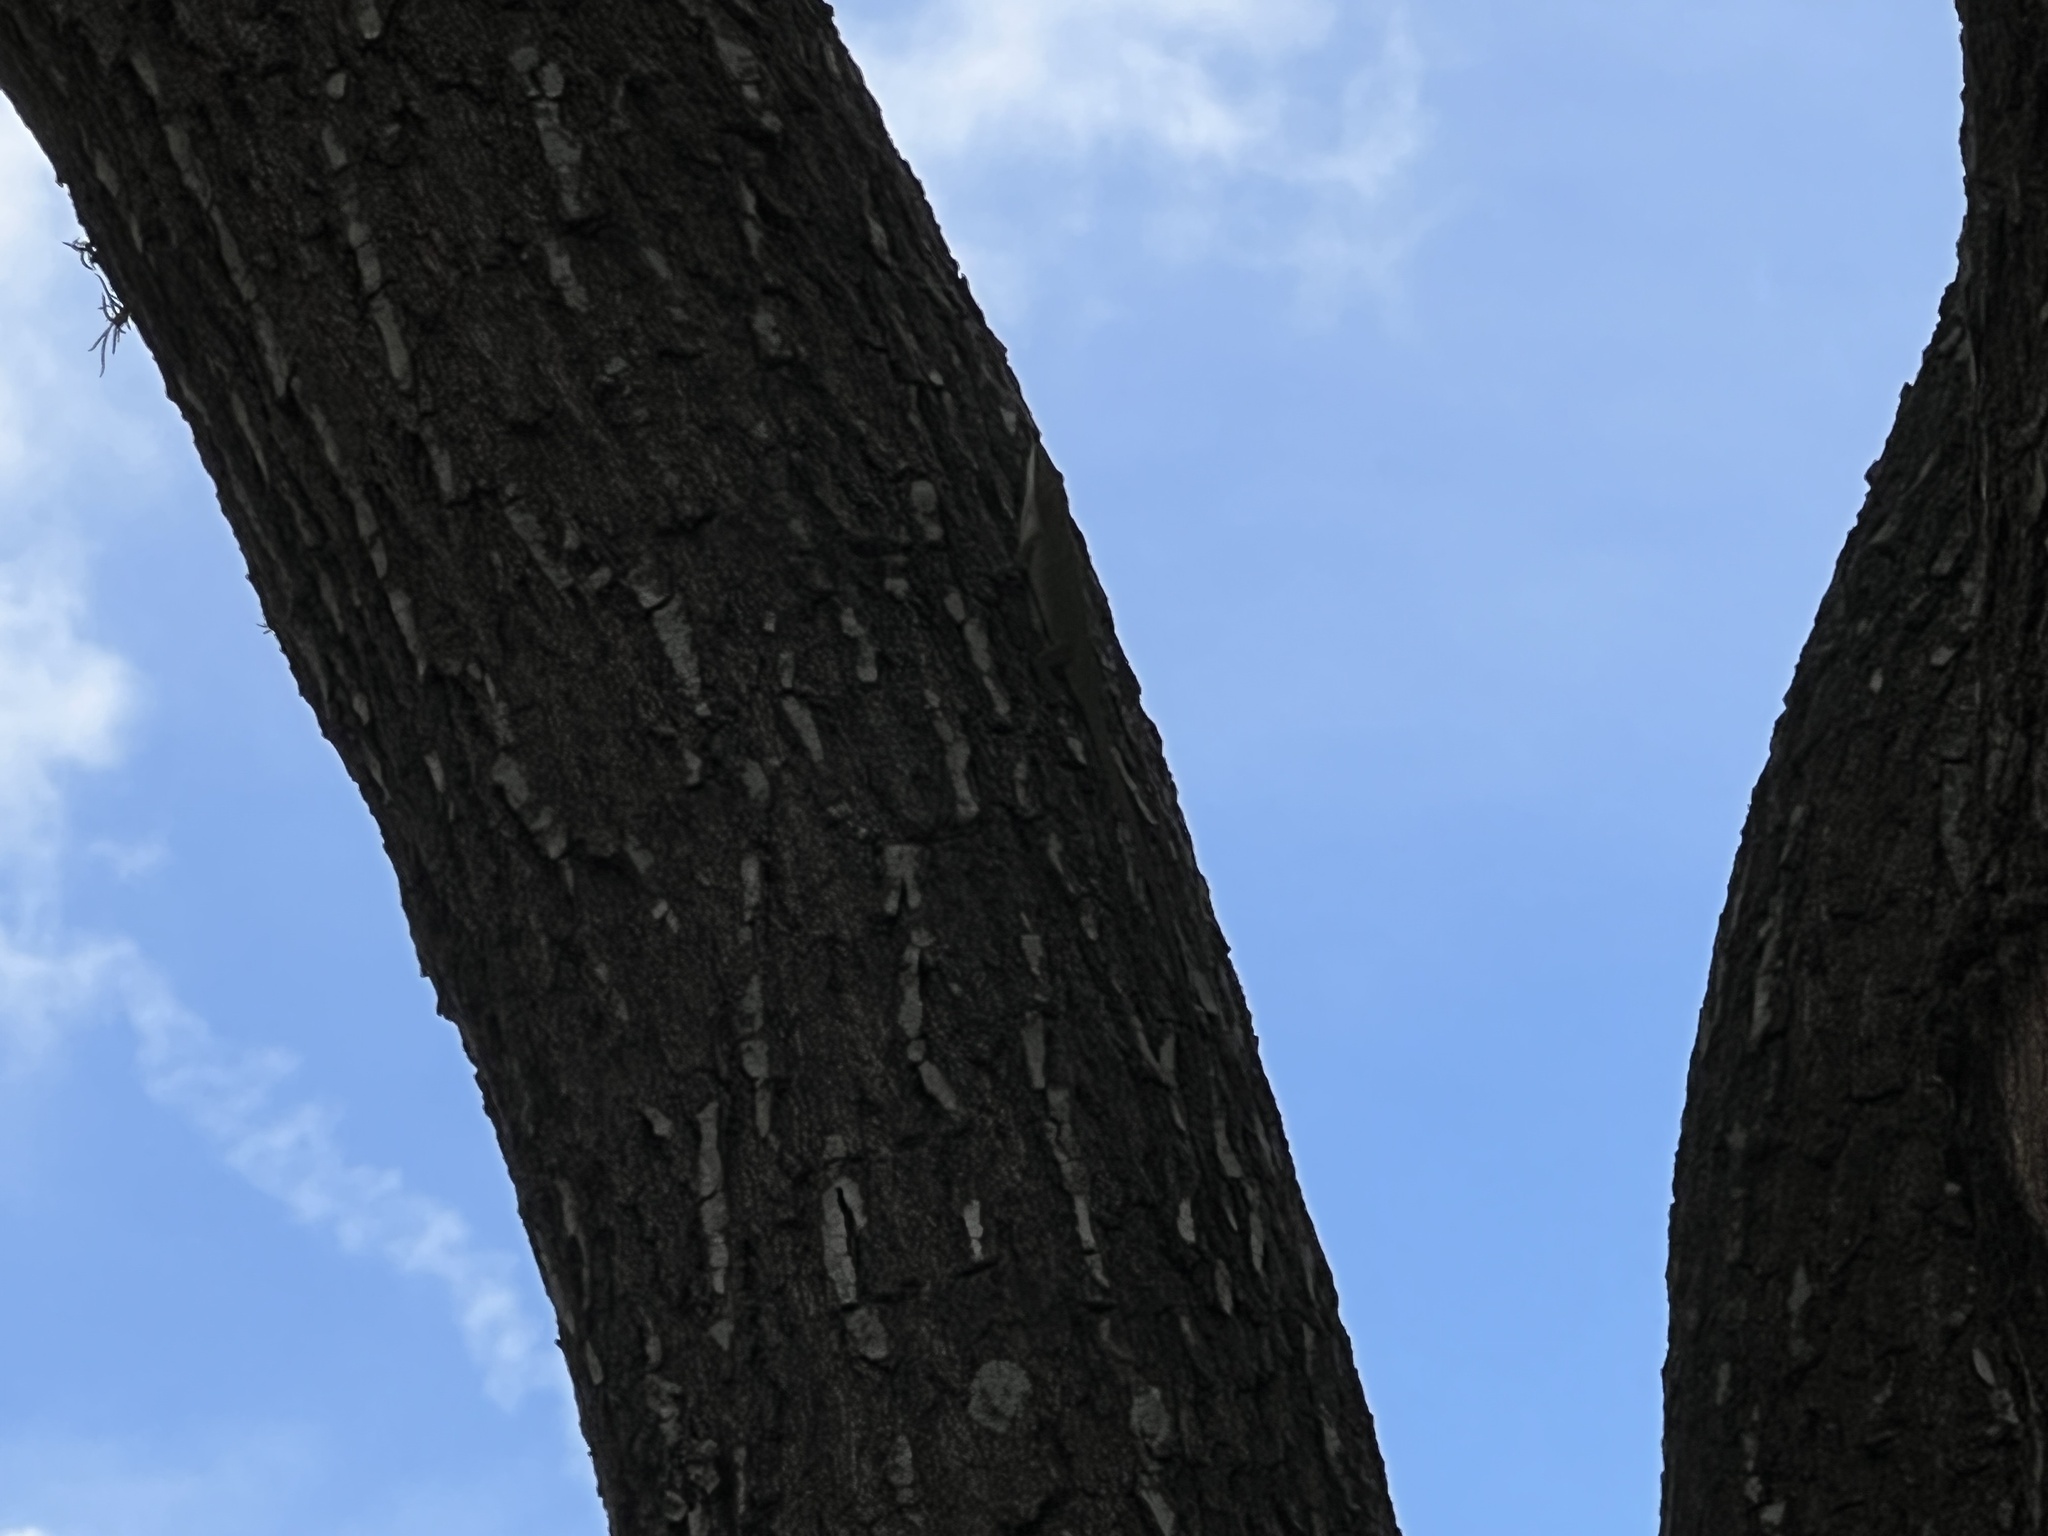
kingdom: Animalia
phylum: Chordata
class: Squamata
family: Dactyloidae
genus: Anolis
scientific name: Anolis carolinensis
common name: Green anole
